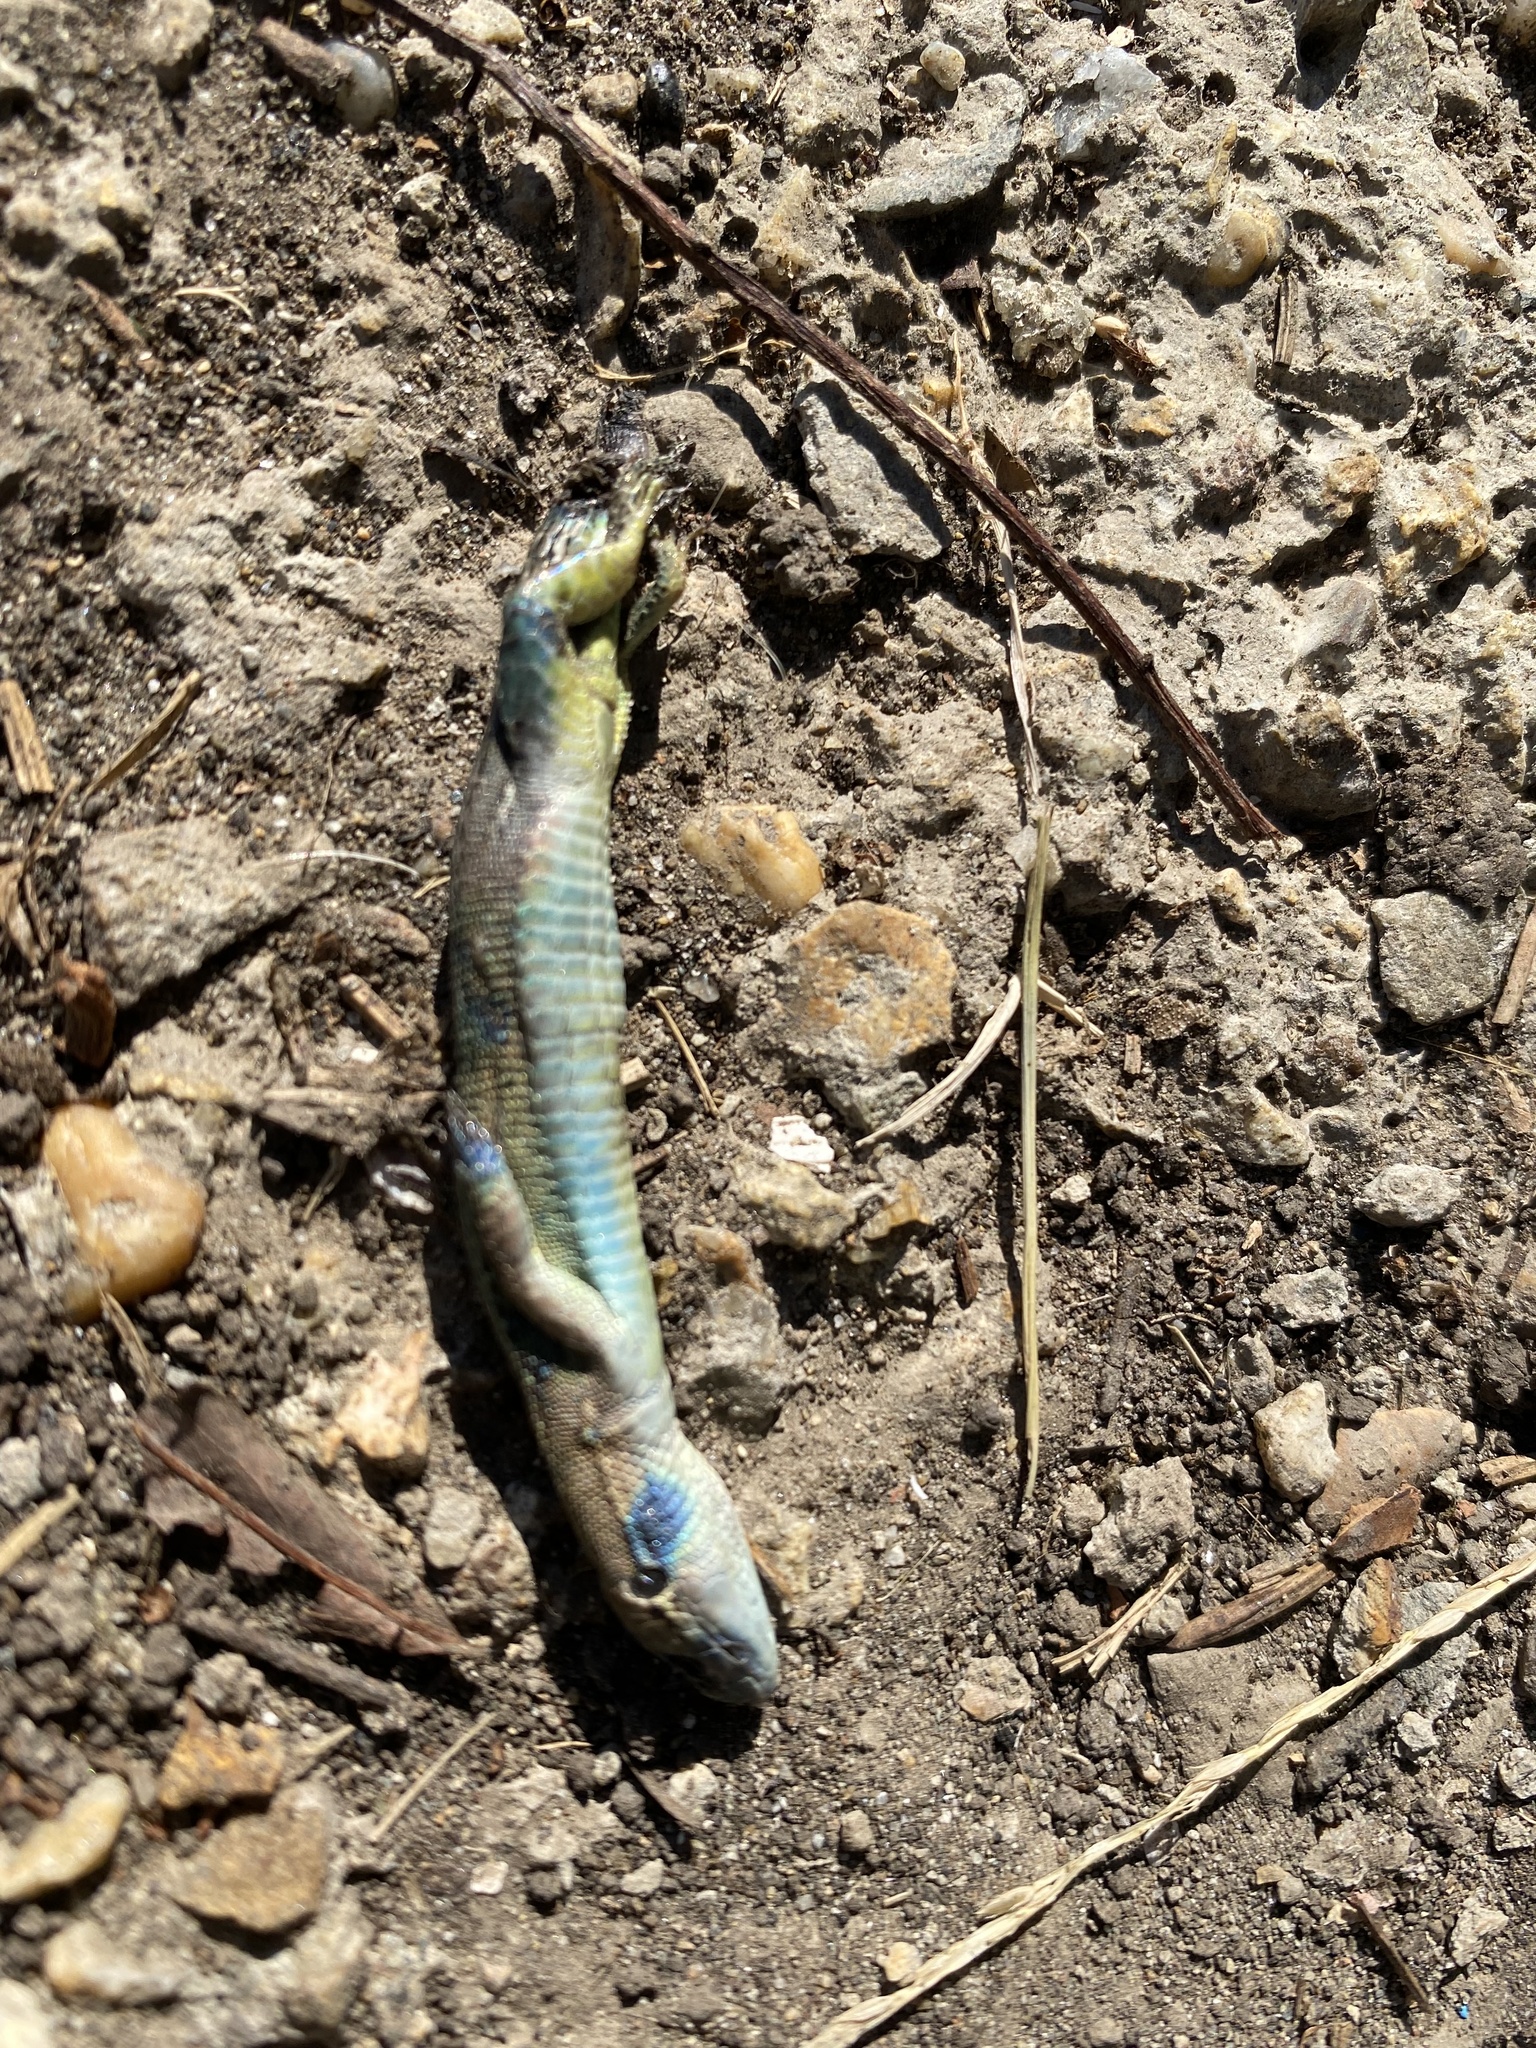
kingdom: Animalia
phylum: Chordata
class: Squamata
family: Lacertidae
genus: Darevskia
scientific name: Darevskia praticola
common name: Meadow lizard
